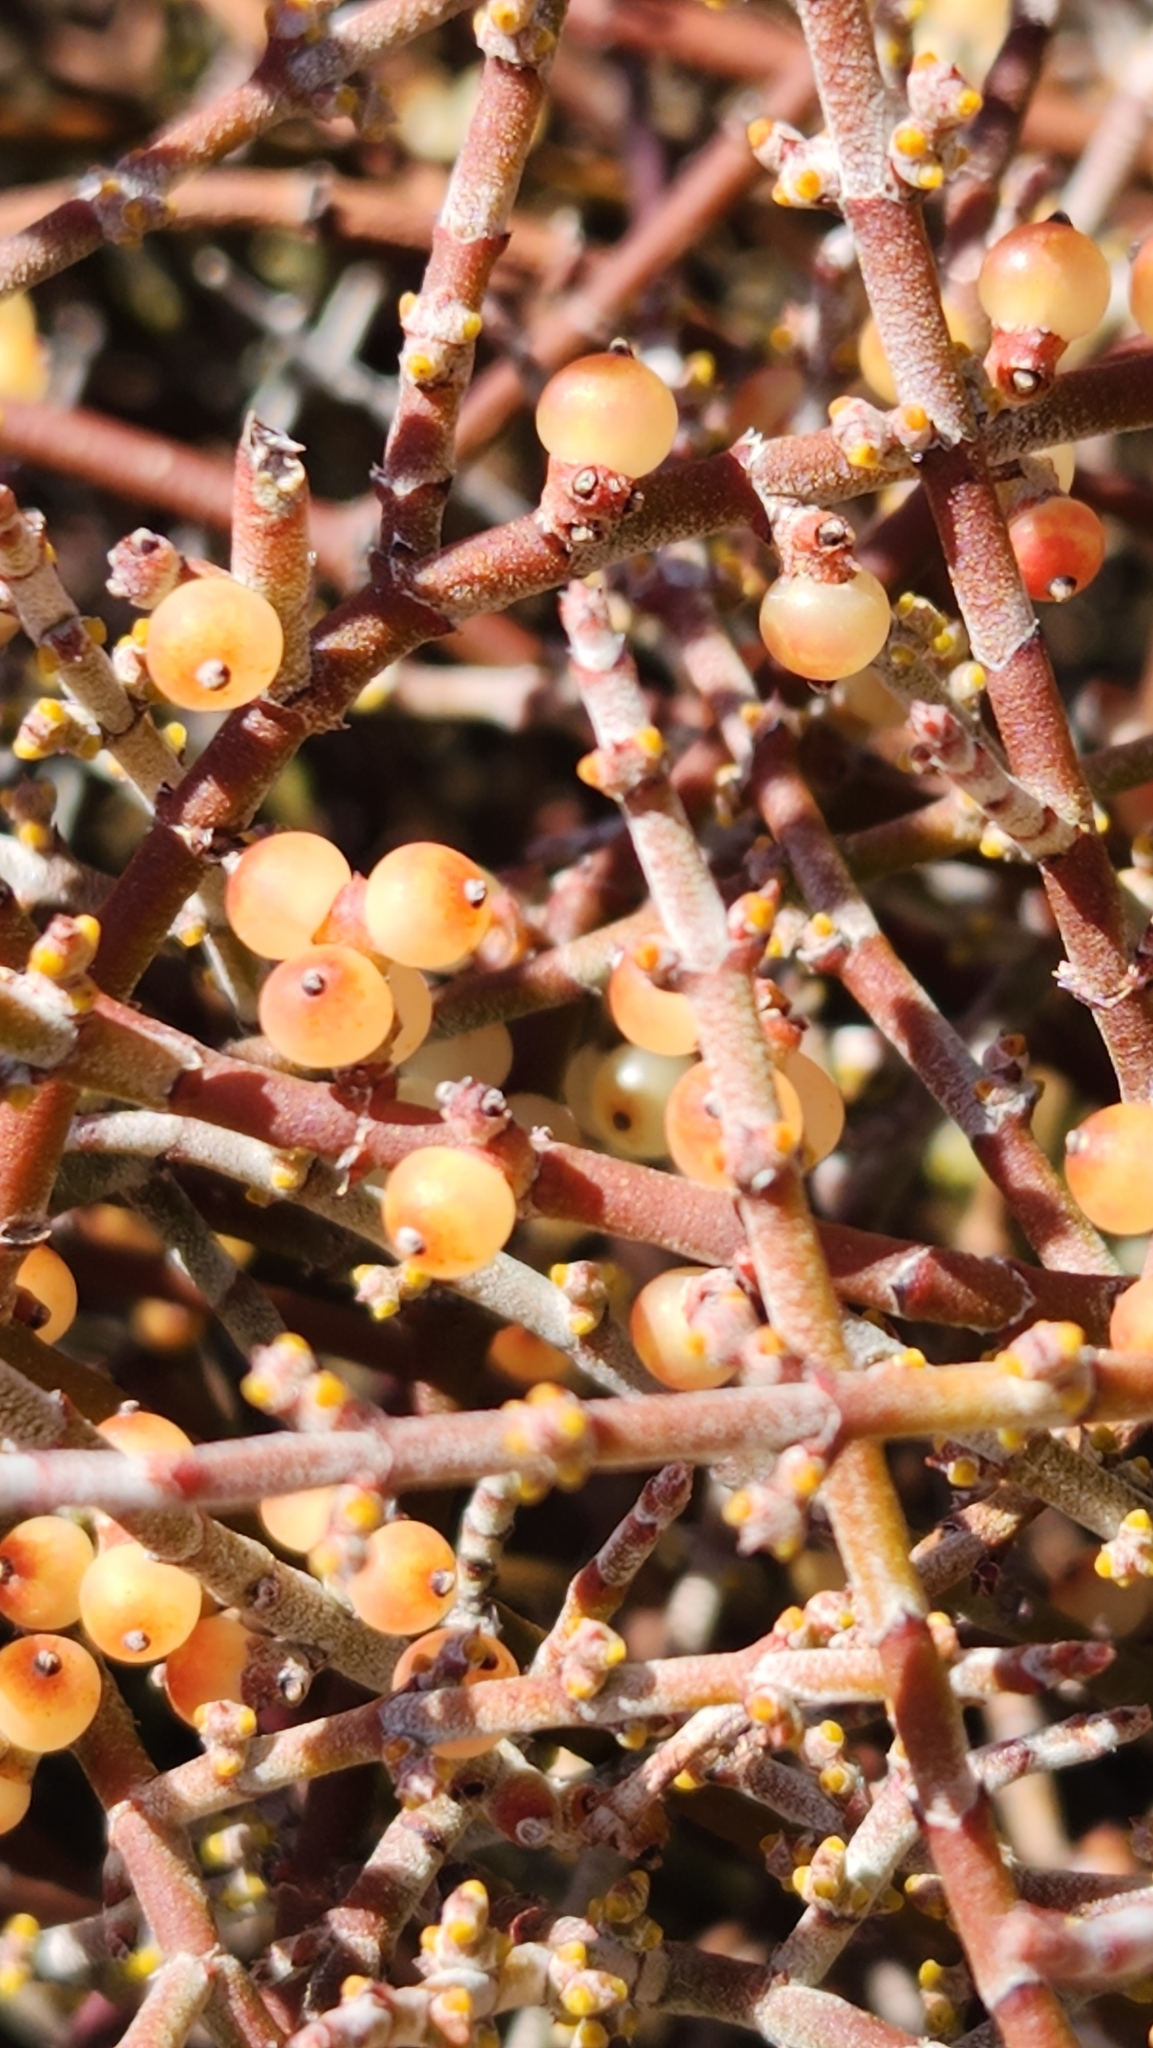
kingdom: Plantae
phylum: Tracheophyta
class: Magnoliopsida
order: Santalales
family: Viscaceae
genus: Phoradendron
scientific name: Phoradendron californicum
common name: Acacia mistletoe
